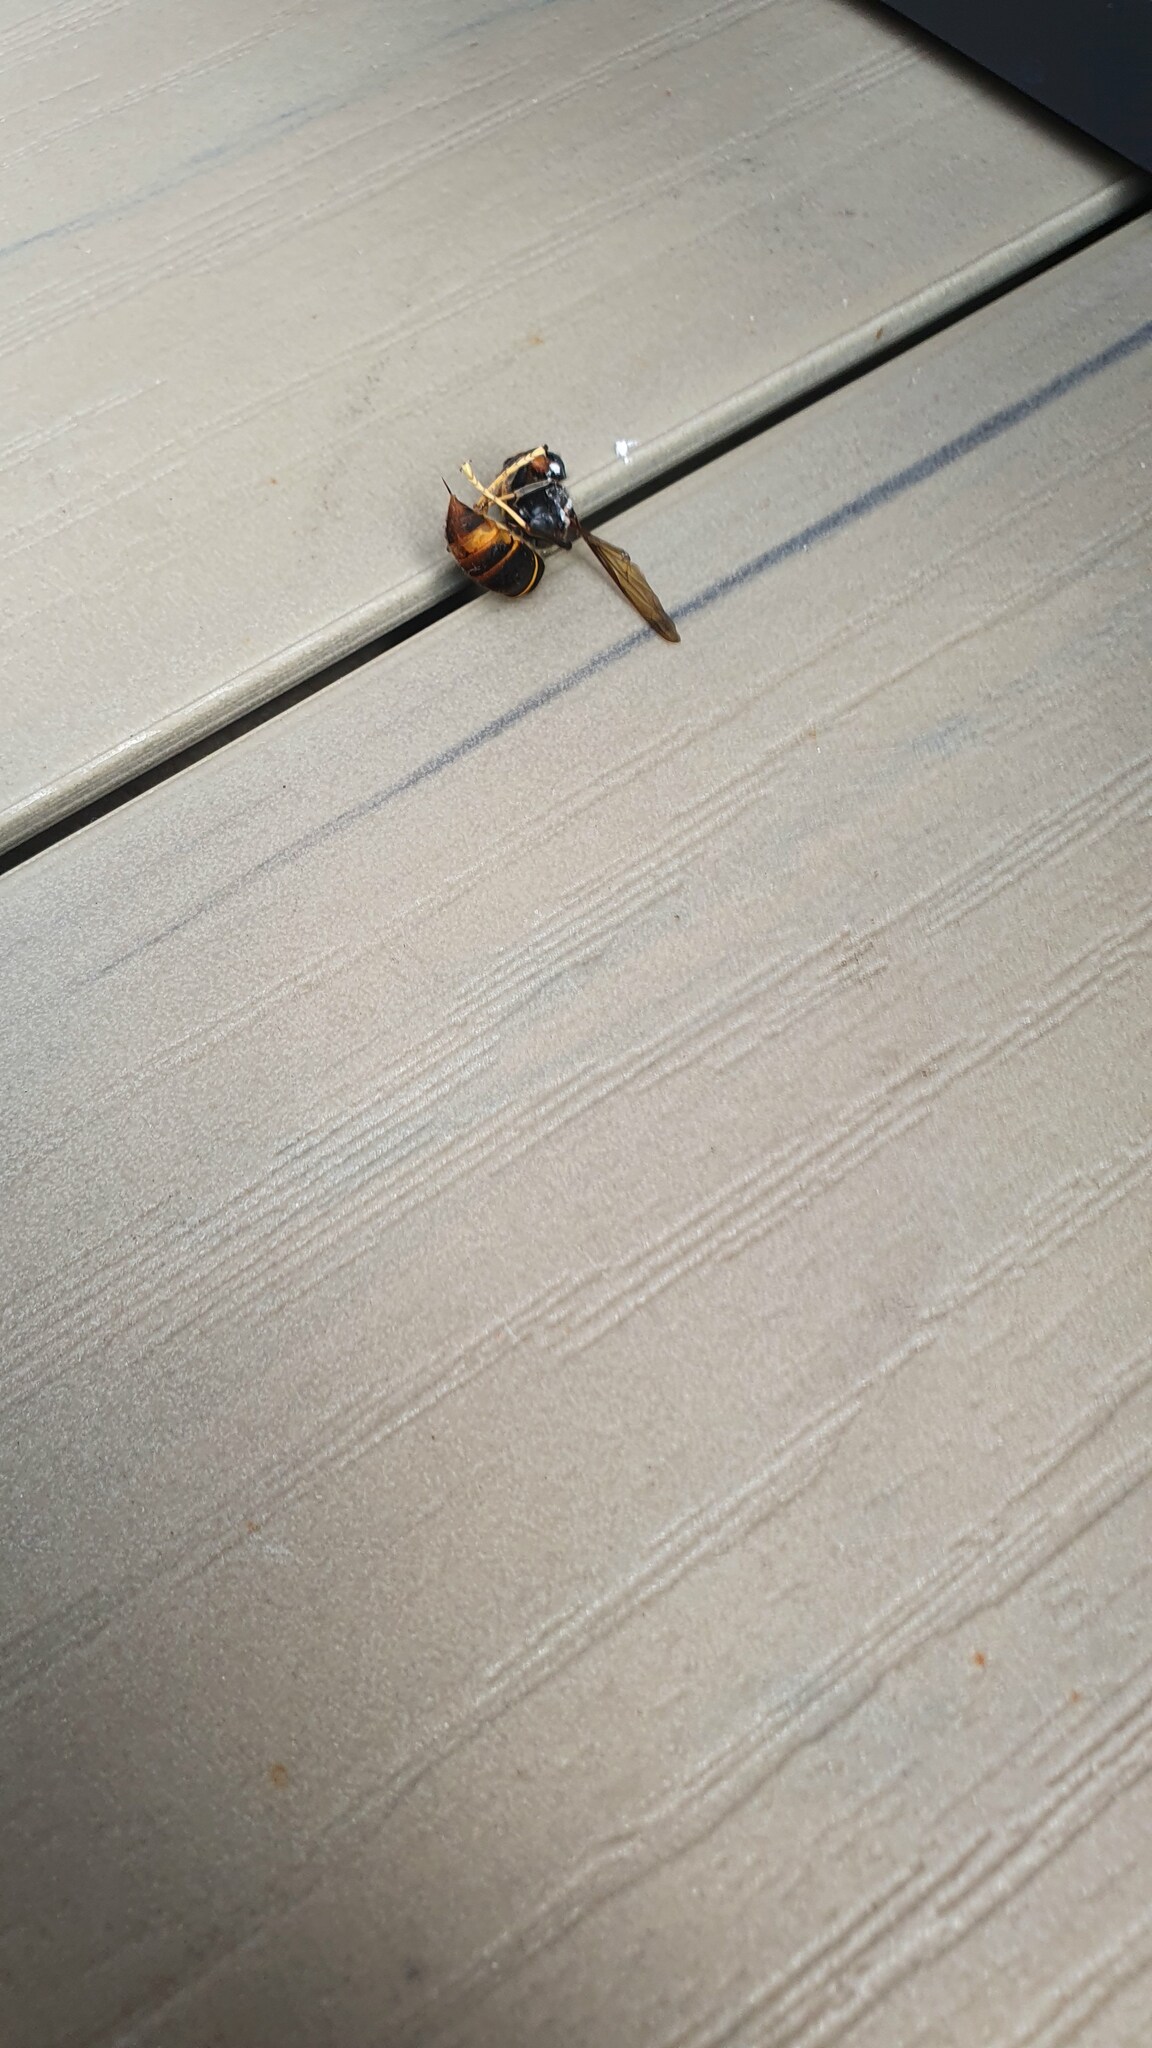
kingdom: Animalia
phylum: Arthropoda
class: Insecta
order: Hymenoptera
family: Vespidae
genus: Vespa
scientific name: Vespa velutina
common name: Asian hornet
